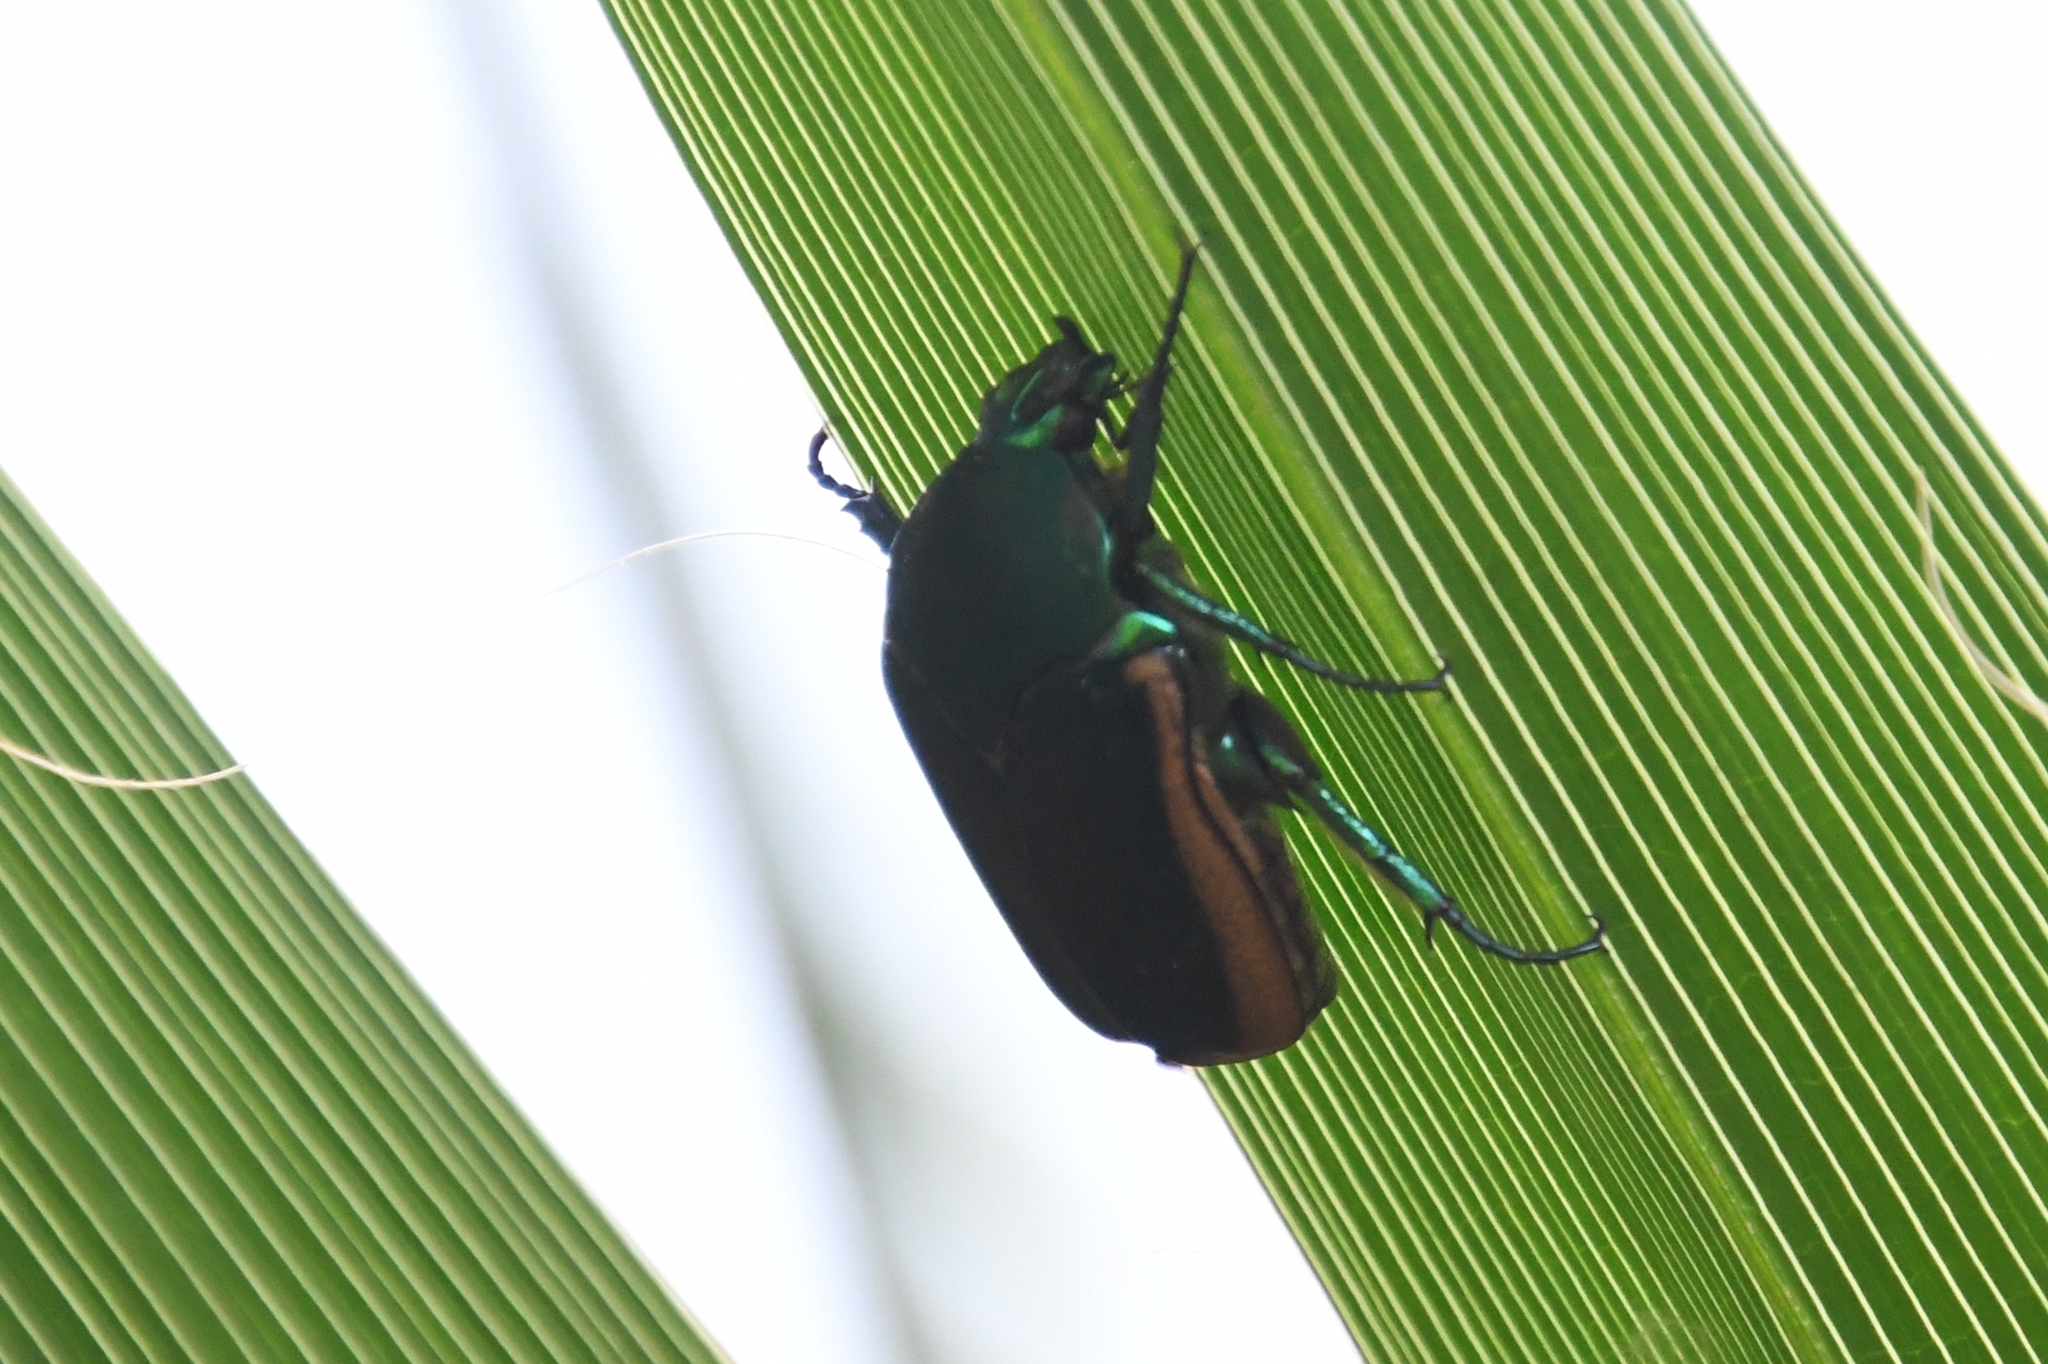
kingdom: Animalia
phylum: Arthropoda
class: Insecta
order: Coleoptera
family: Scarabaeidae
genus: Cotinis
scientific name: Cotinis mutabilis
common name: Figeater beetle
